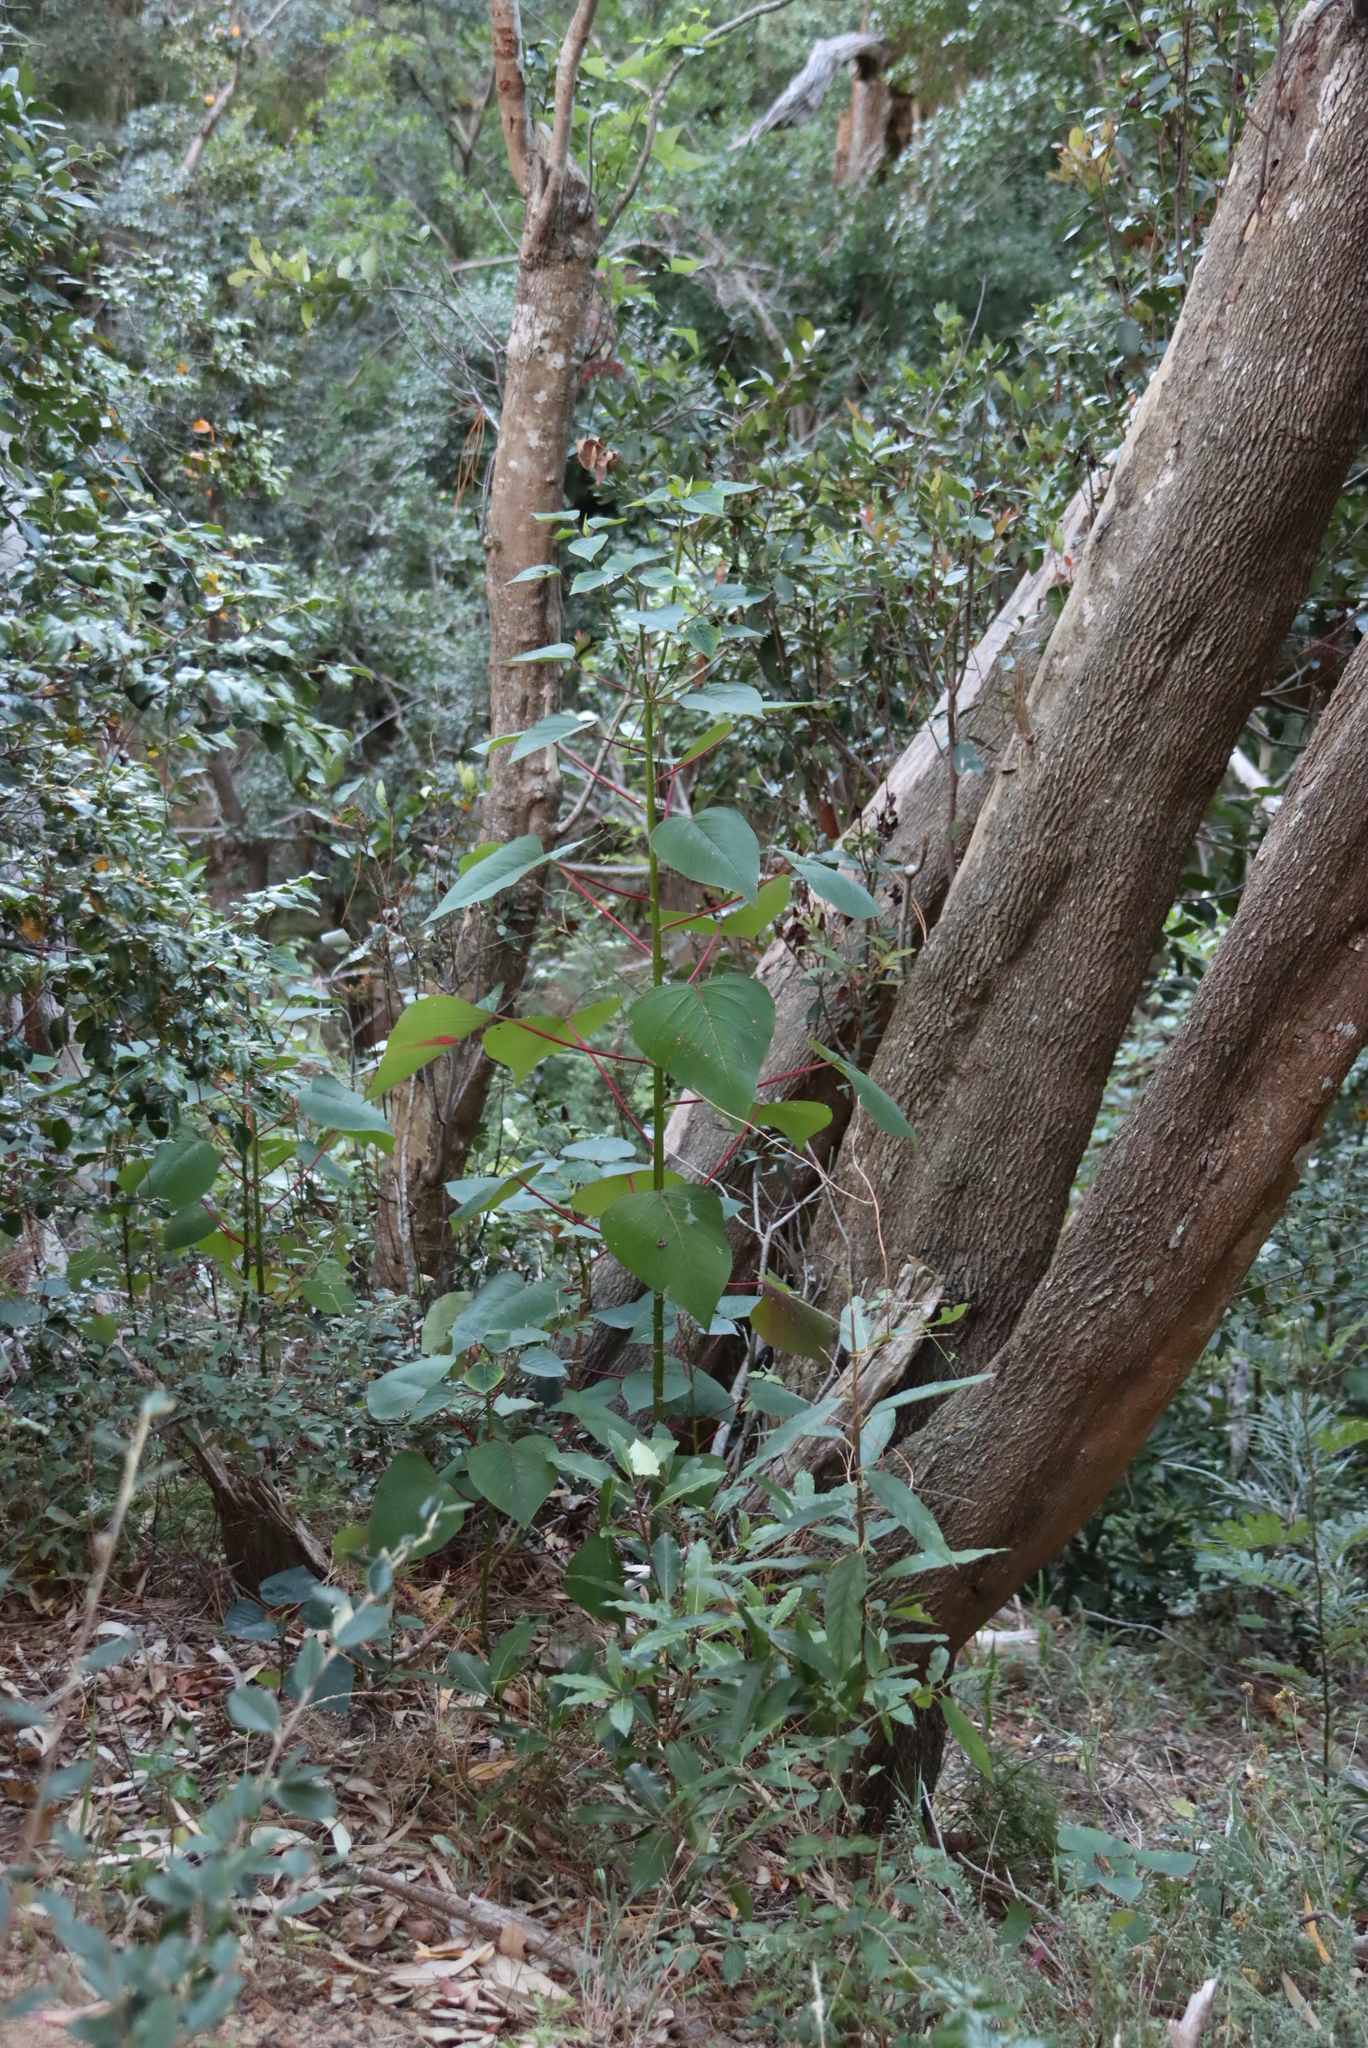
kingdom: Plantae
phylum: Tracheophyta
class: Magnoliopsida
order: Malpighiales
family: Euphorbiaceae
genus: Homalanthus
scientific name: Homalanthus populifolius
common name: Queensland poplar
